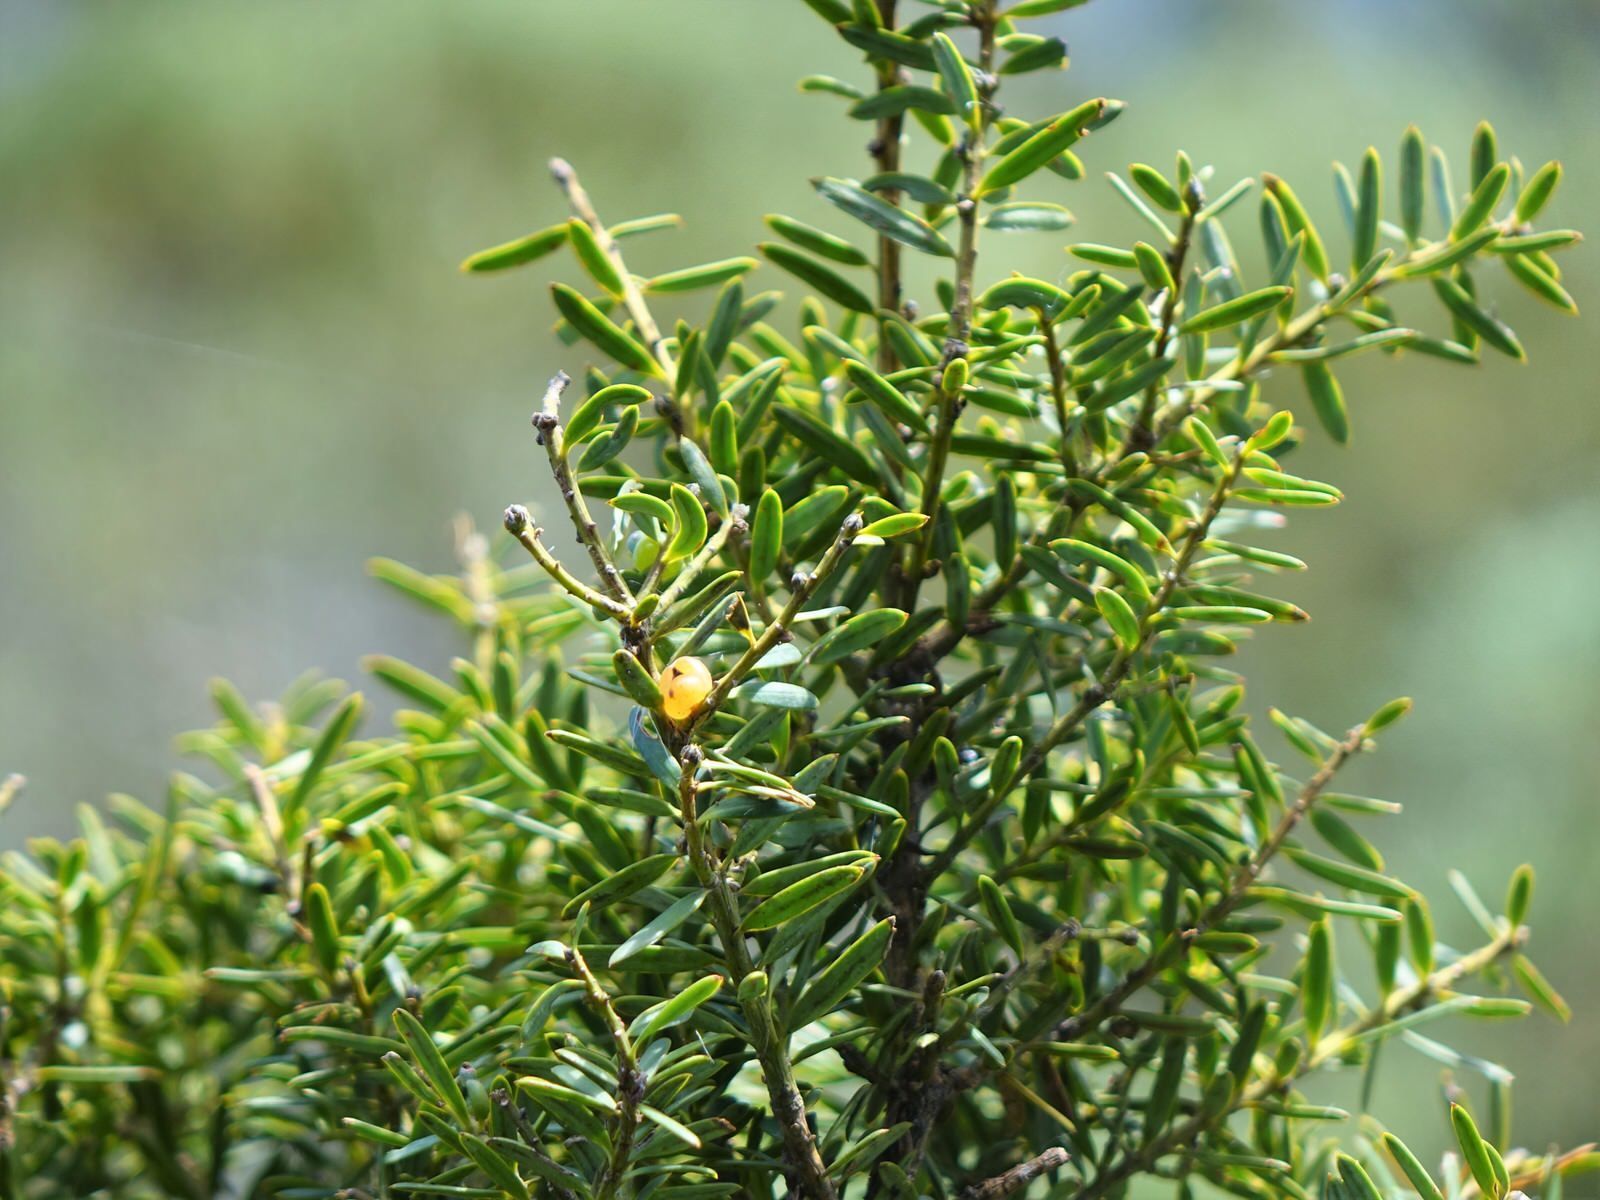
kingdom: Plantae
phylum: Tracheophyta
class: Pinopsida
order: Pinales
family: Podocarpaceae
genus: Podocarpus
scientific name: Podocarpus totara
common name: Totara
